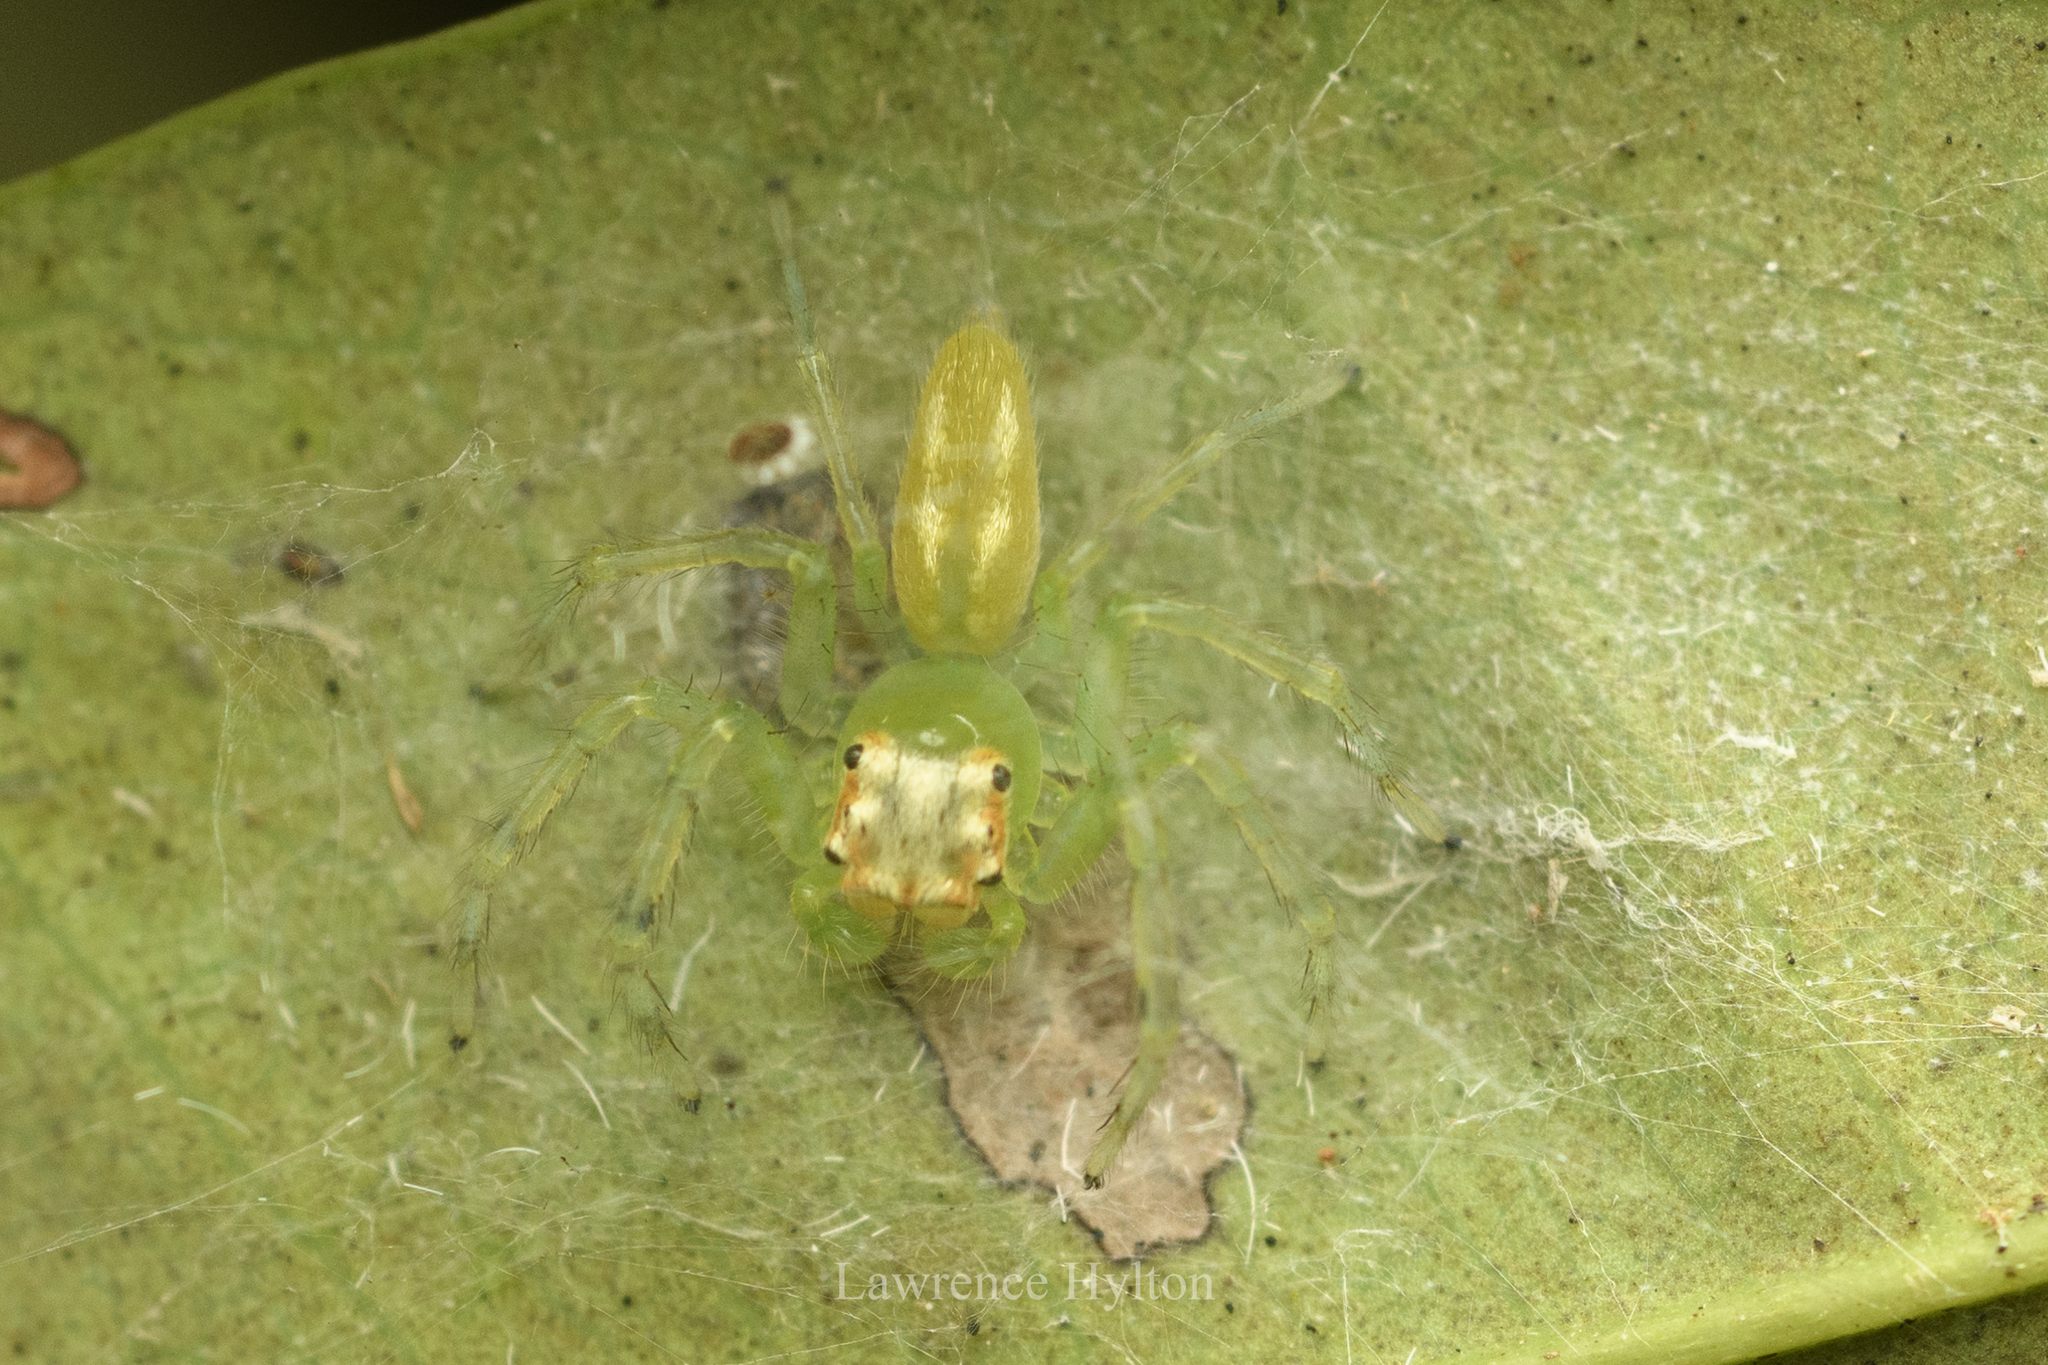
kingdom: Animalia
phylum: Arthropoda
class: Arachnida
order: Araneae
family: Salticidae
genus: Epeus
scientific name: Epeus glorius
